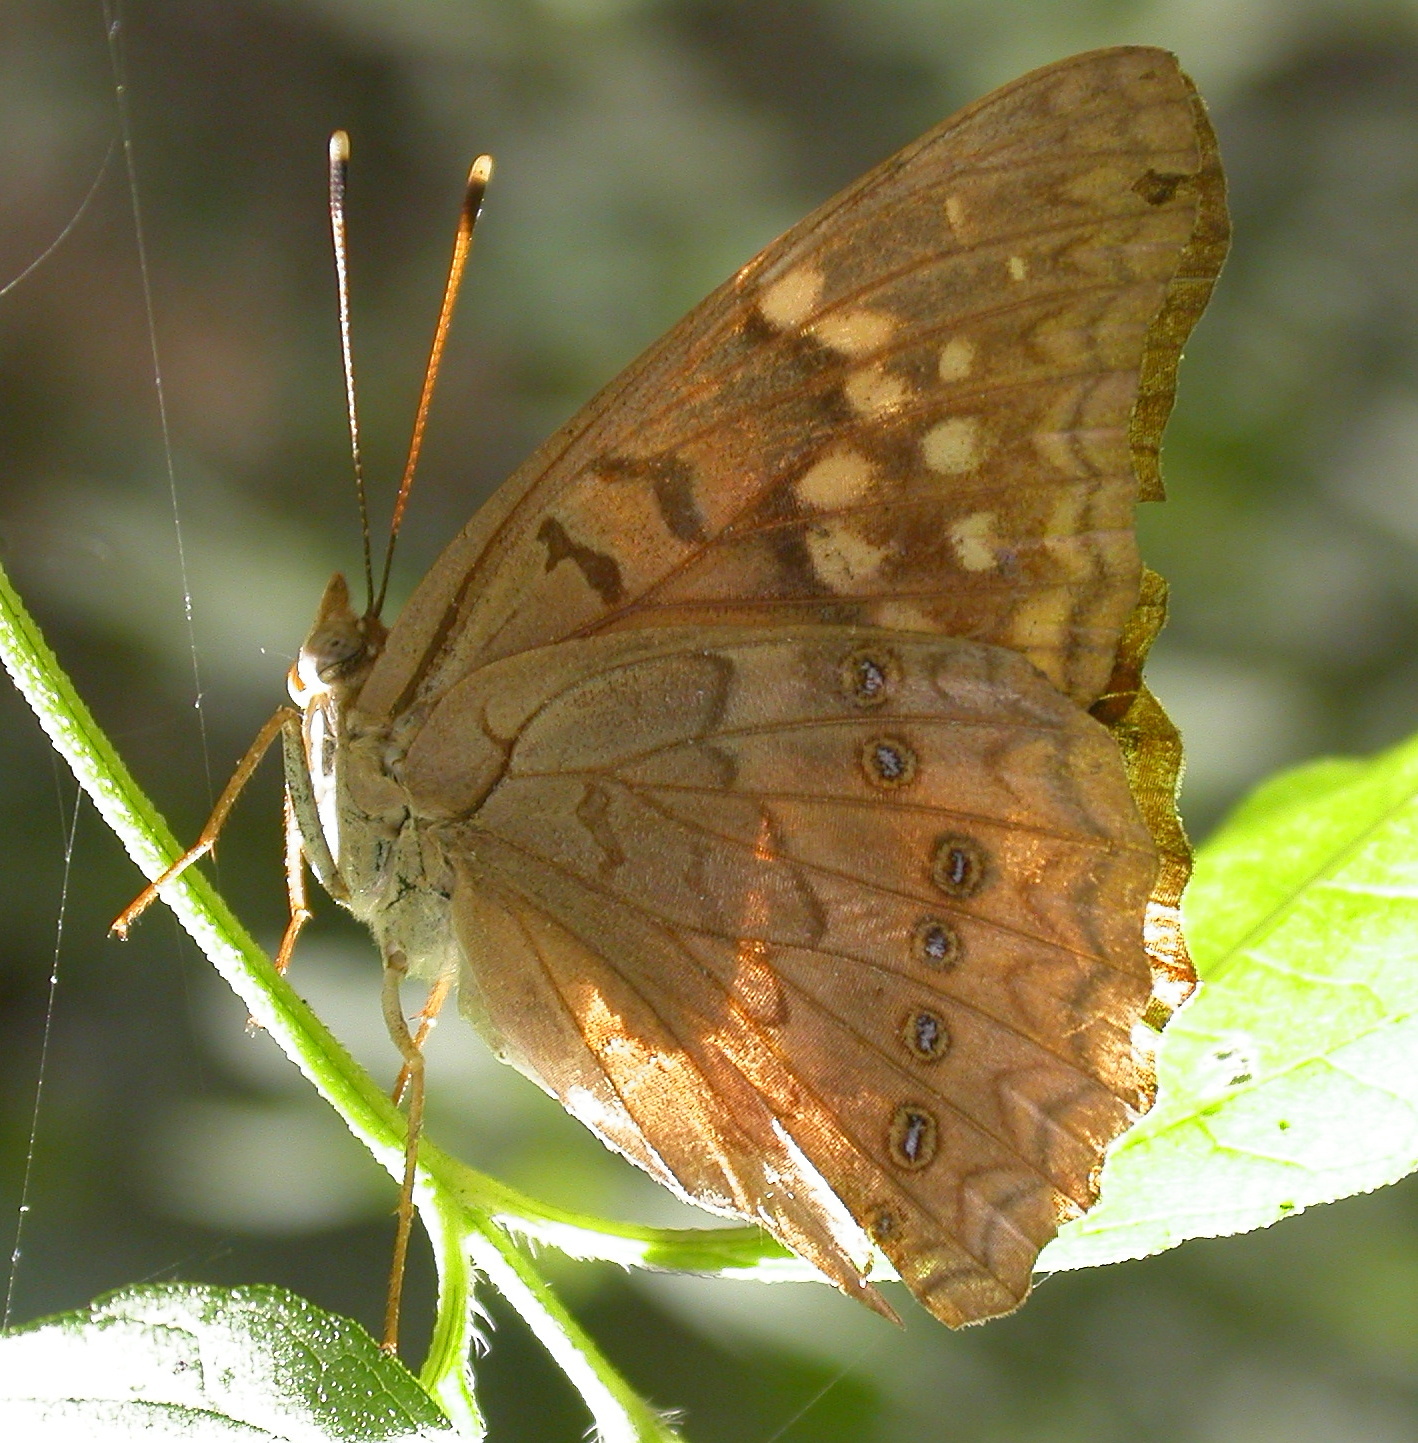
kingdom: Animalia
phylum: Arthropoda
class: Insecta
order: Lepidoptera
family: Nymphalidae
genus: Asterocampa
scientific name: Asterocampa clyton
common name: Tawny emperor
